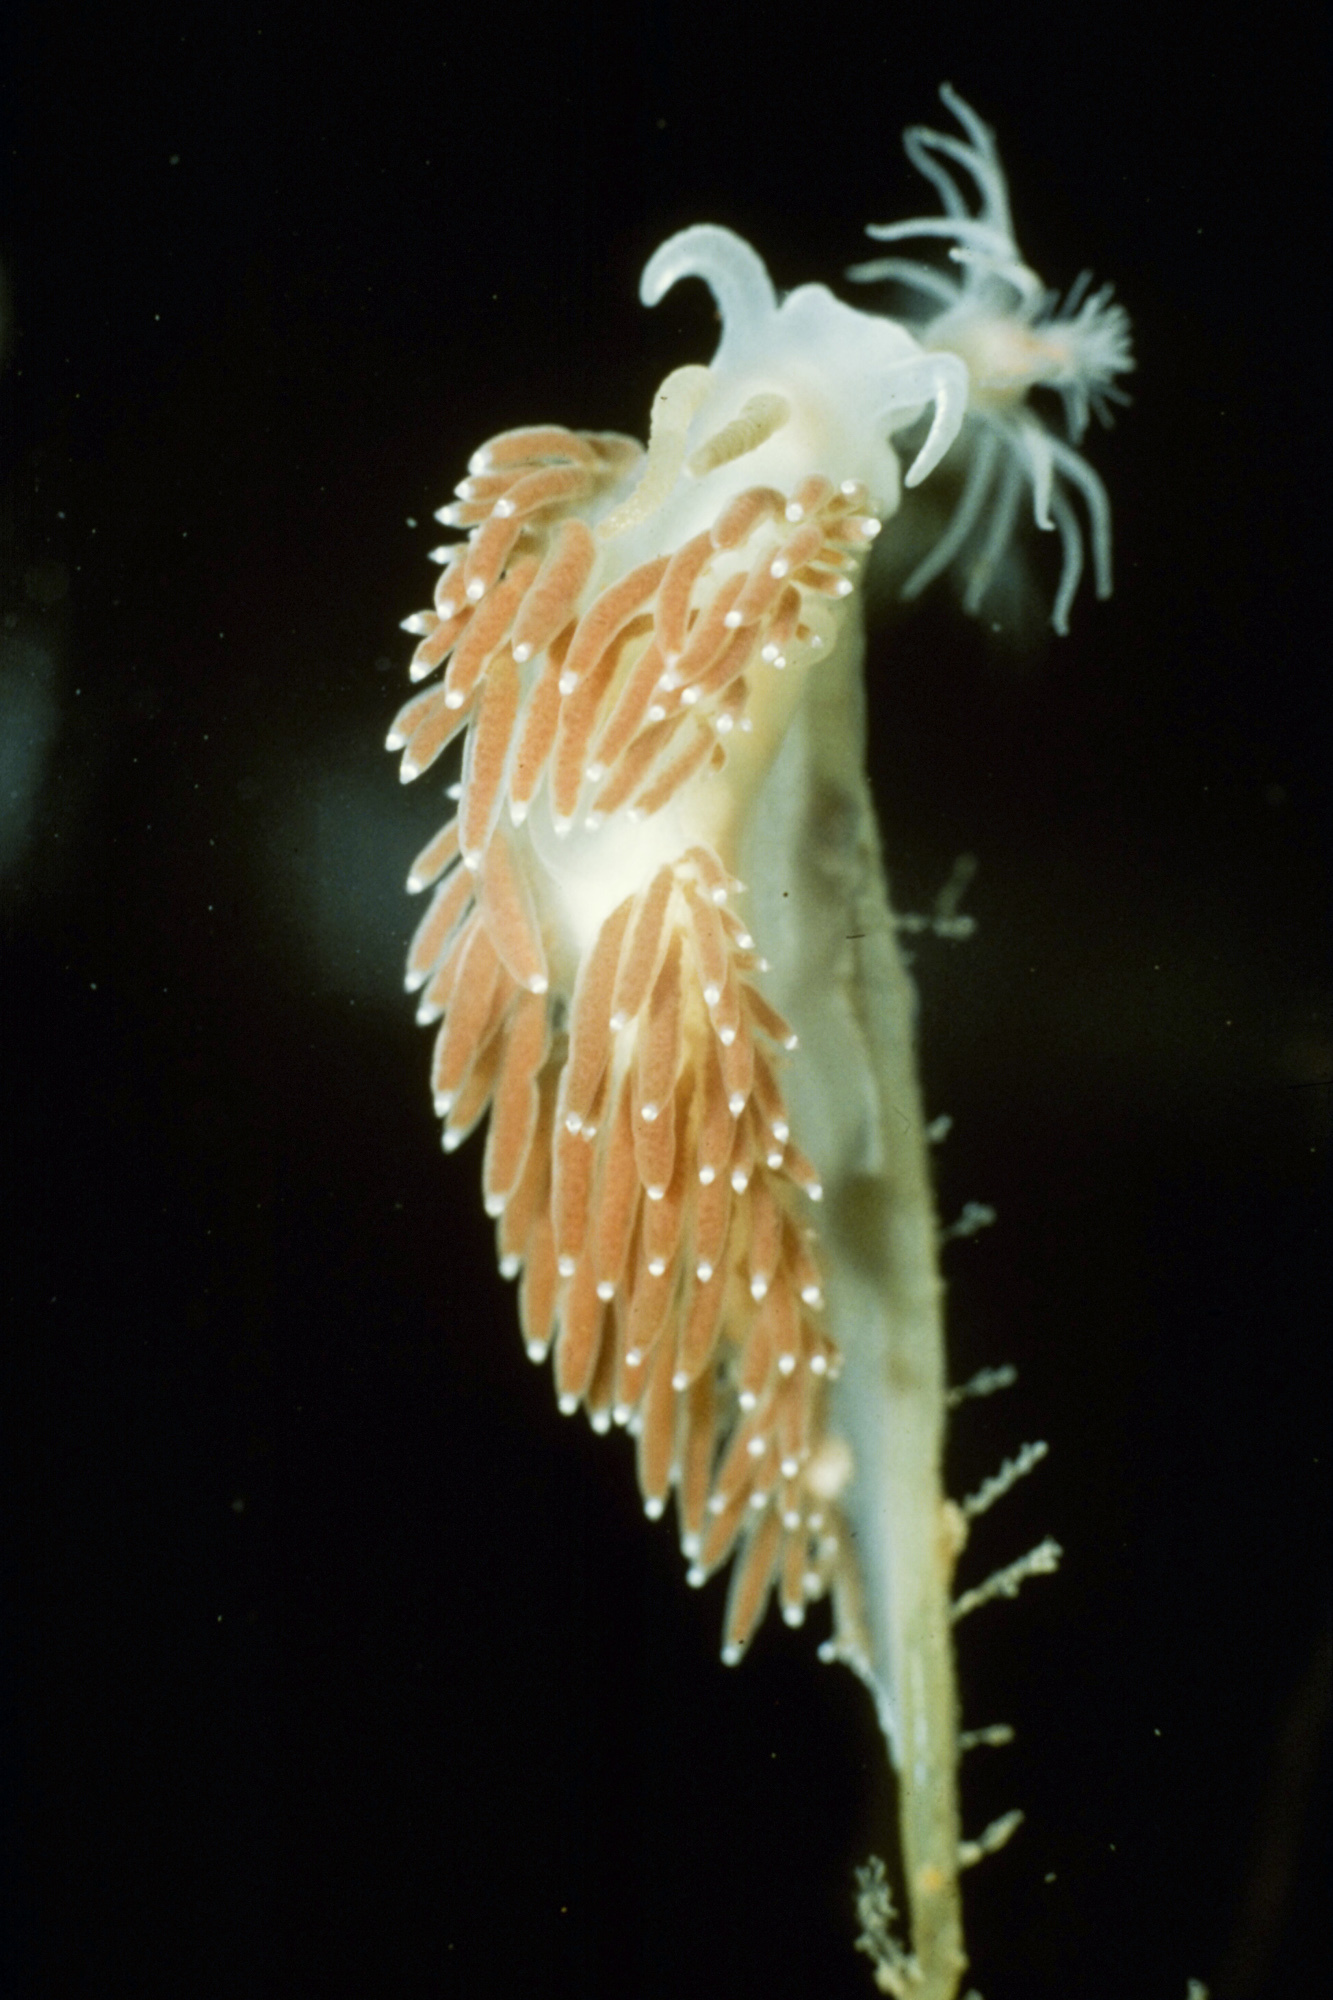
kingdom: Animalia
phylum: Mollusca
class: Gastropoda
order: Nudibranchia
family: Coryphellidae
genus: Coryphella
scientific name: Coryphella verrucosa
